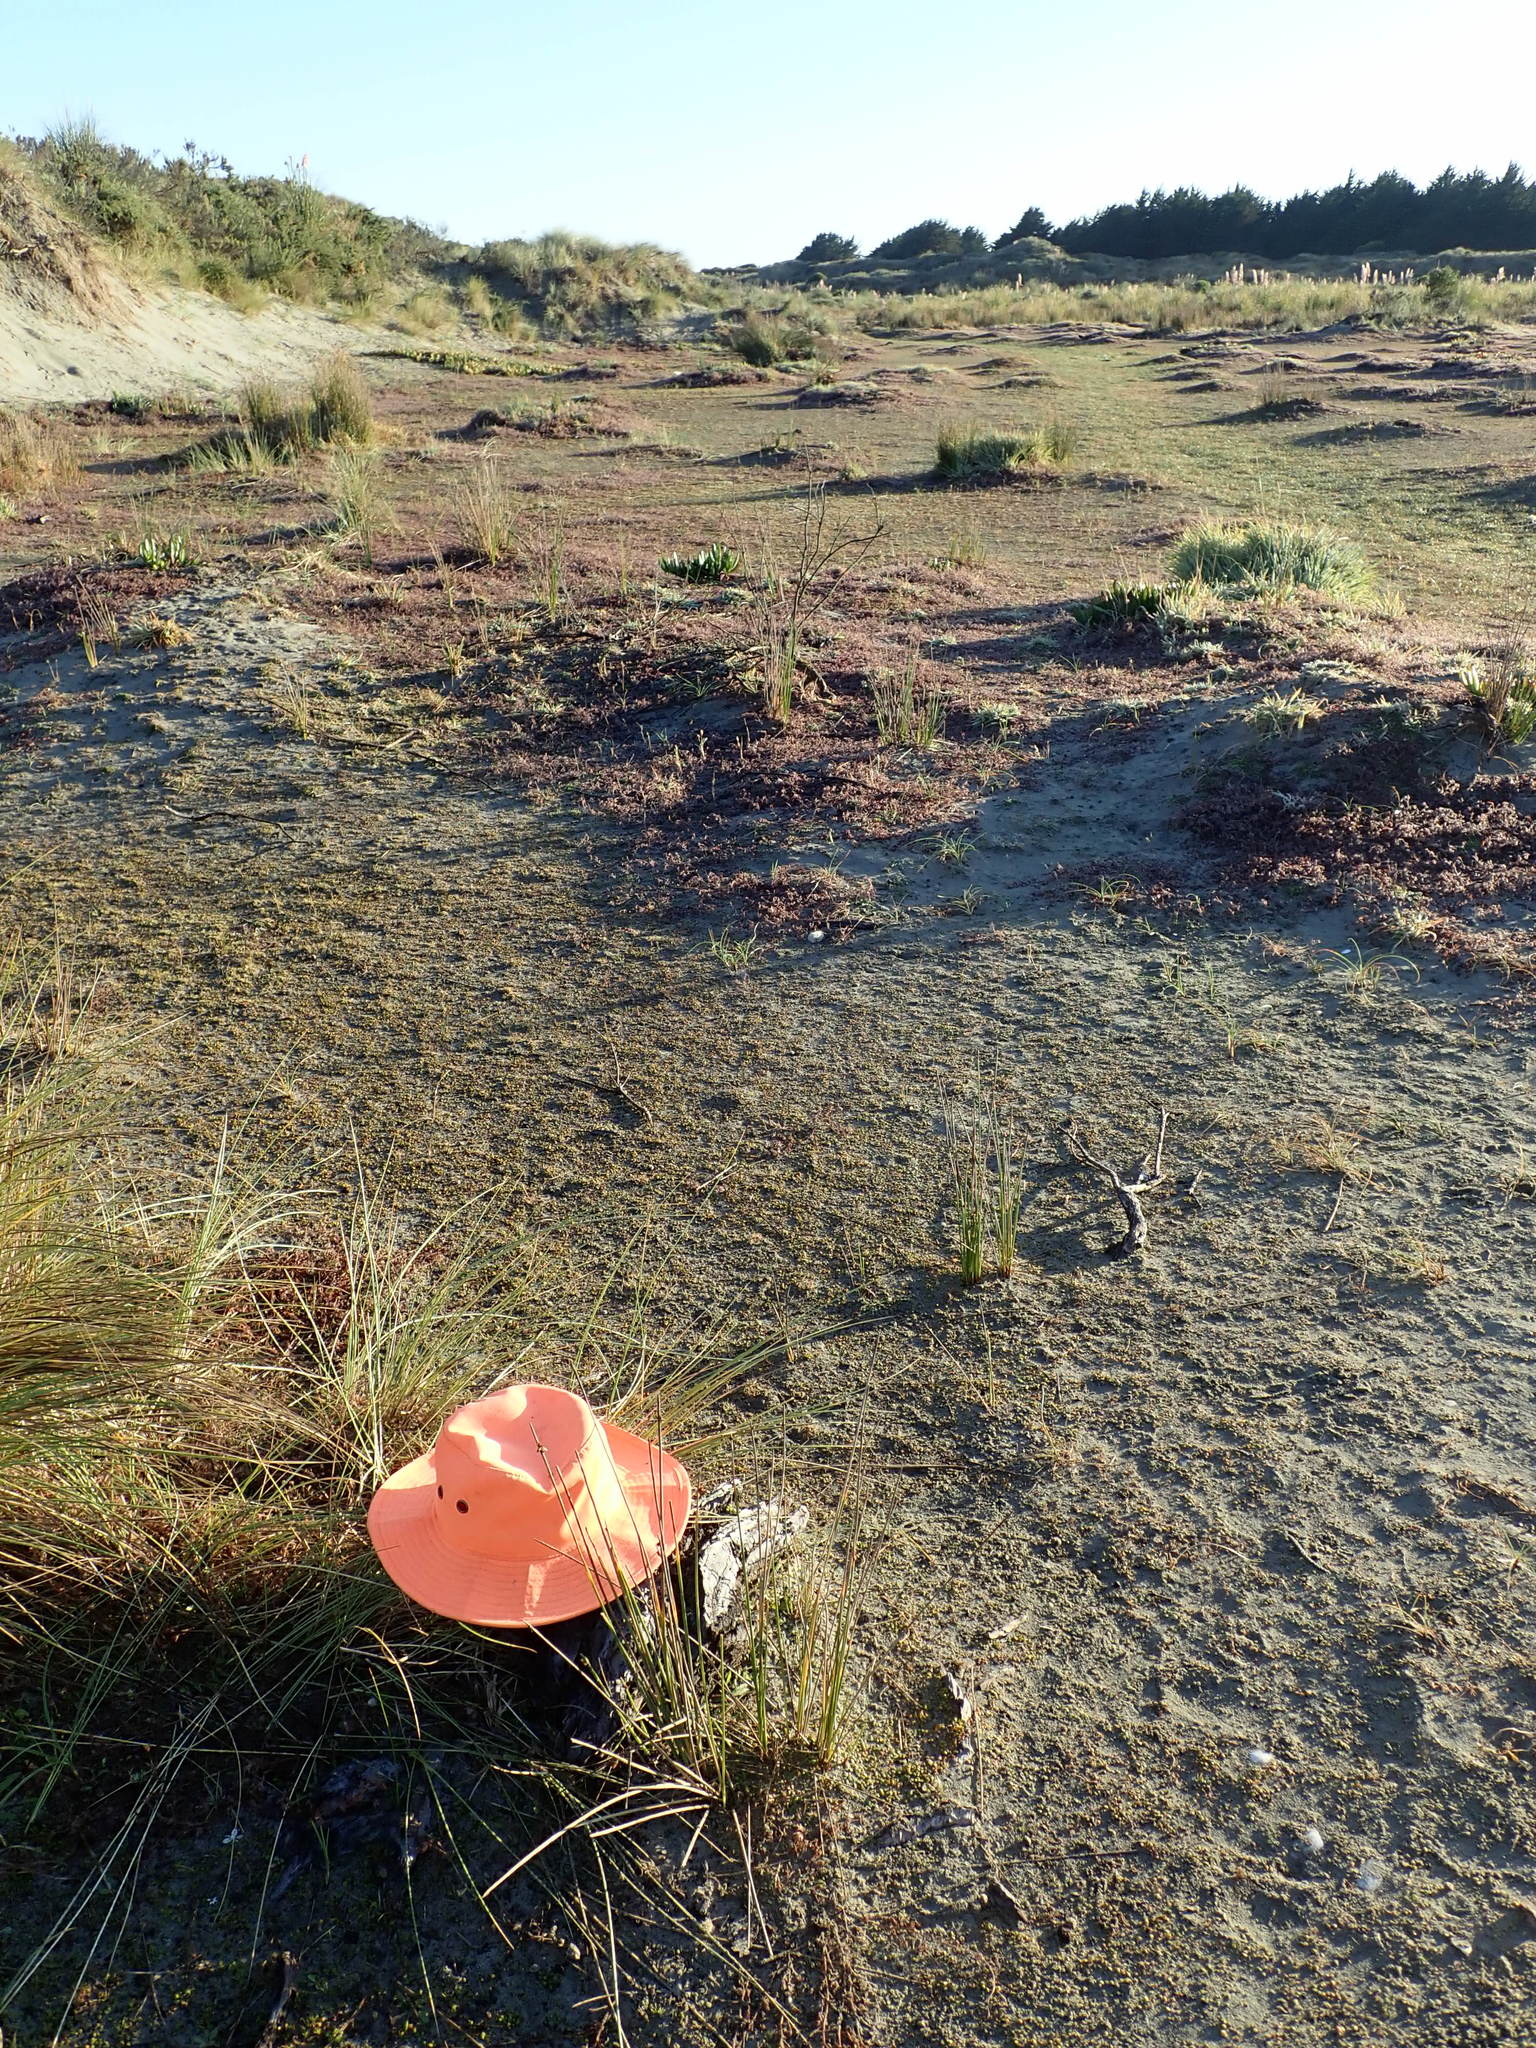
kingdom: Animalia
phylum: Arthropoda
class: Arachnida
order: Araneae
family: Porrhothelidae
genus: Porrhothele
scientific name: Porrhothele antipodiana
